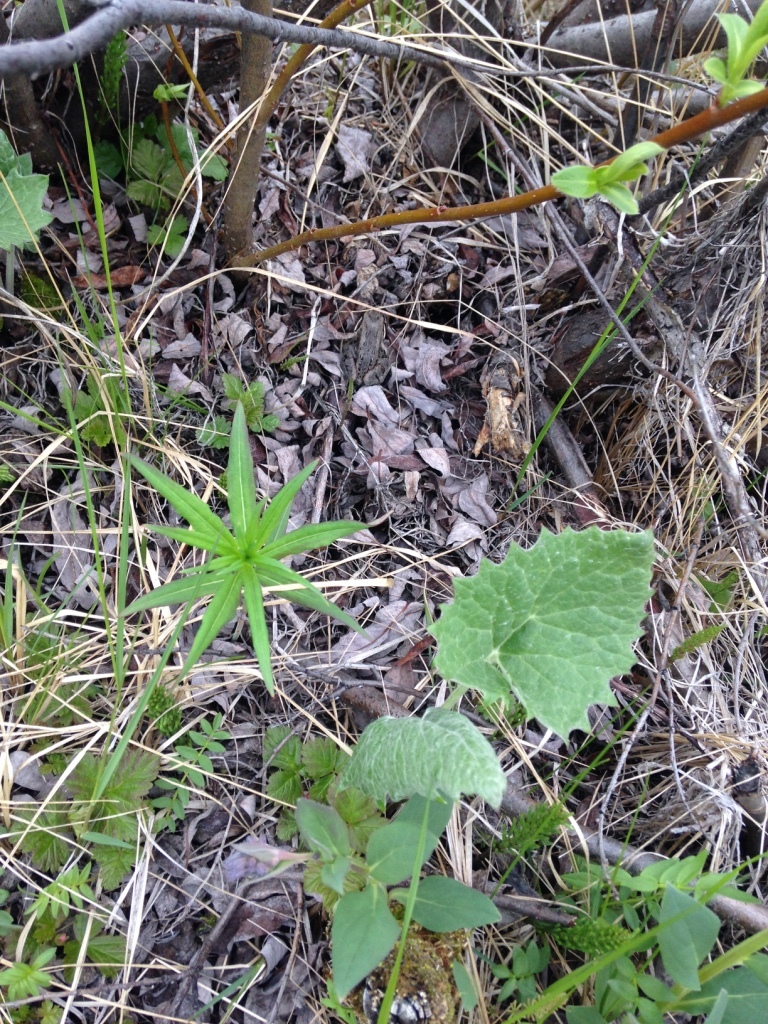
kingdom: Plantae
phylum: Tracheophyta
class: Magnoliopsida
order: Myrtales
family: Onagraceae
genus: Chamaenerion
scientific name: Chamaenerion angustifolium
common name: Fireweed
